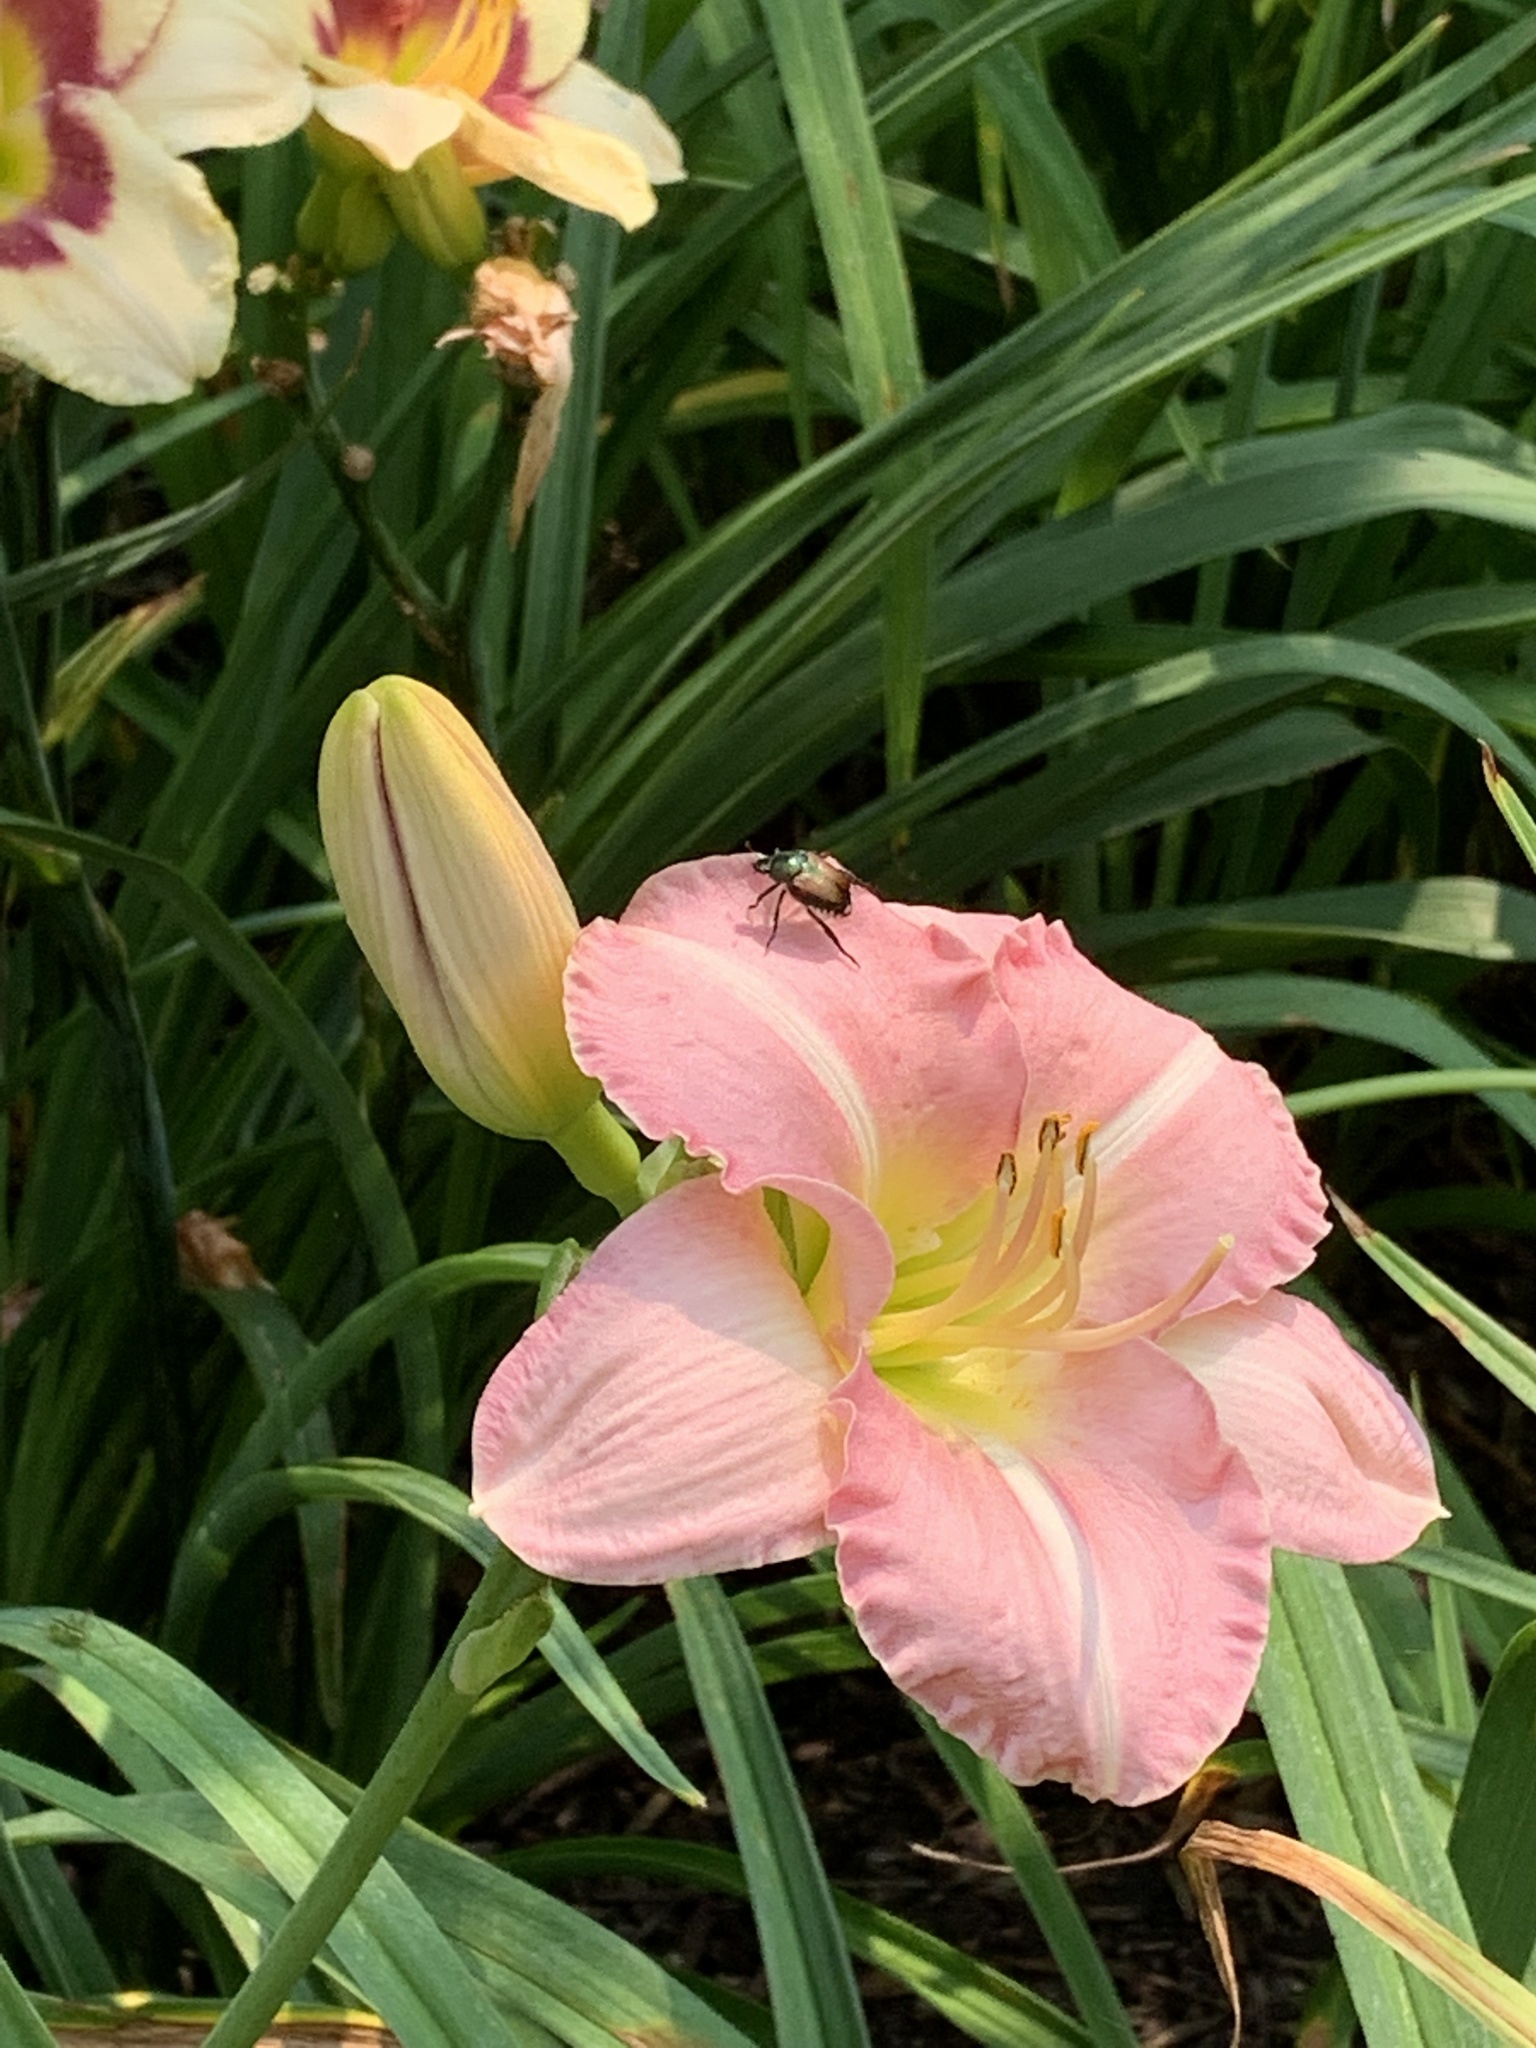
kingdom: Animalia
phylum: Arthropoda
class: Insecta
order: Coleoptera
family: Scarabaeidae
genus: Popillia
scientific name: Popillia japonica
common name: Japanese beetle
